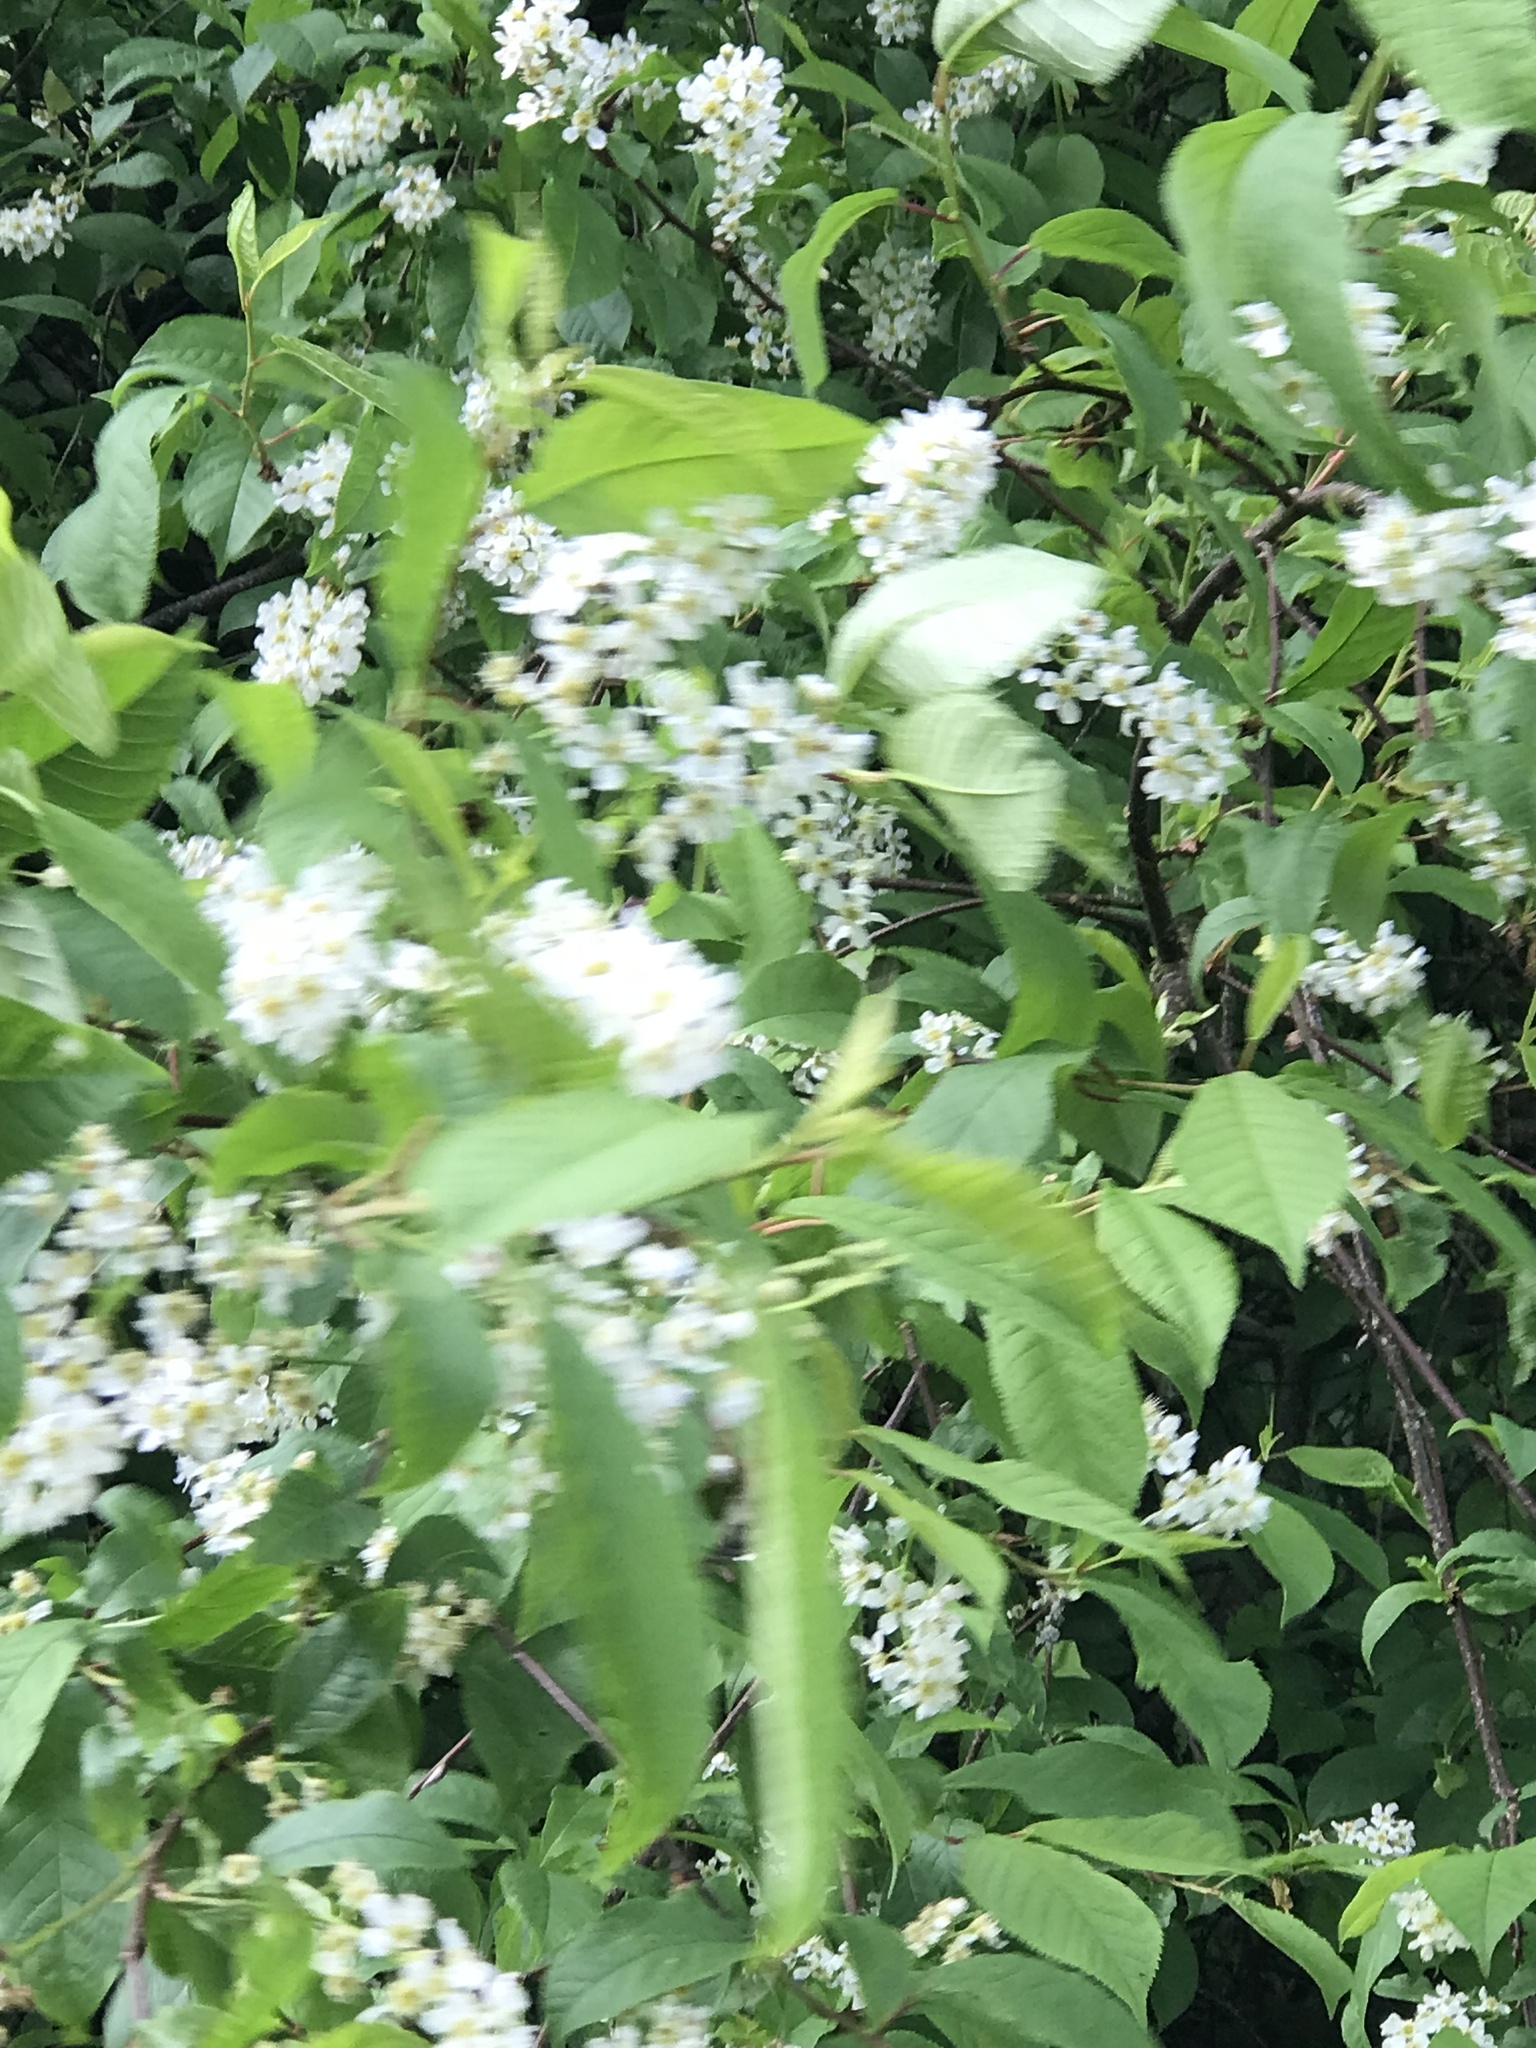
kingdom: Plantae
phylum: Tracheophyta
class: Magnoliopsida
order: Rosales
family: Rosaceae
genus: Prunus
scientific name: Prunus padus
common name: Bird cherry
